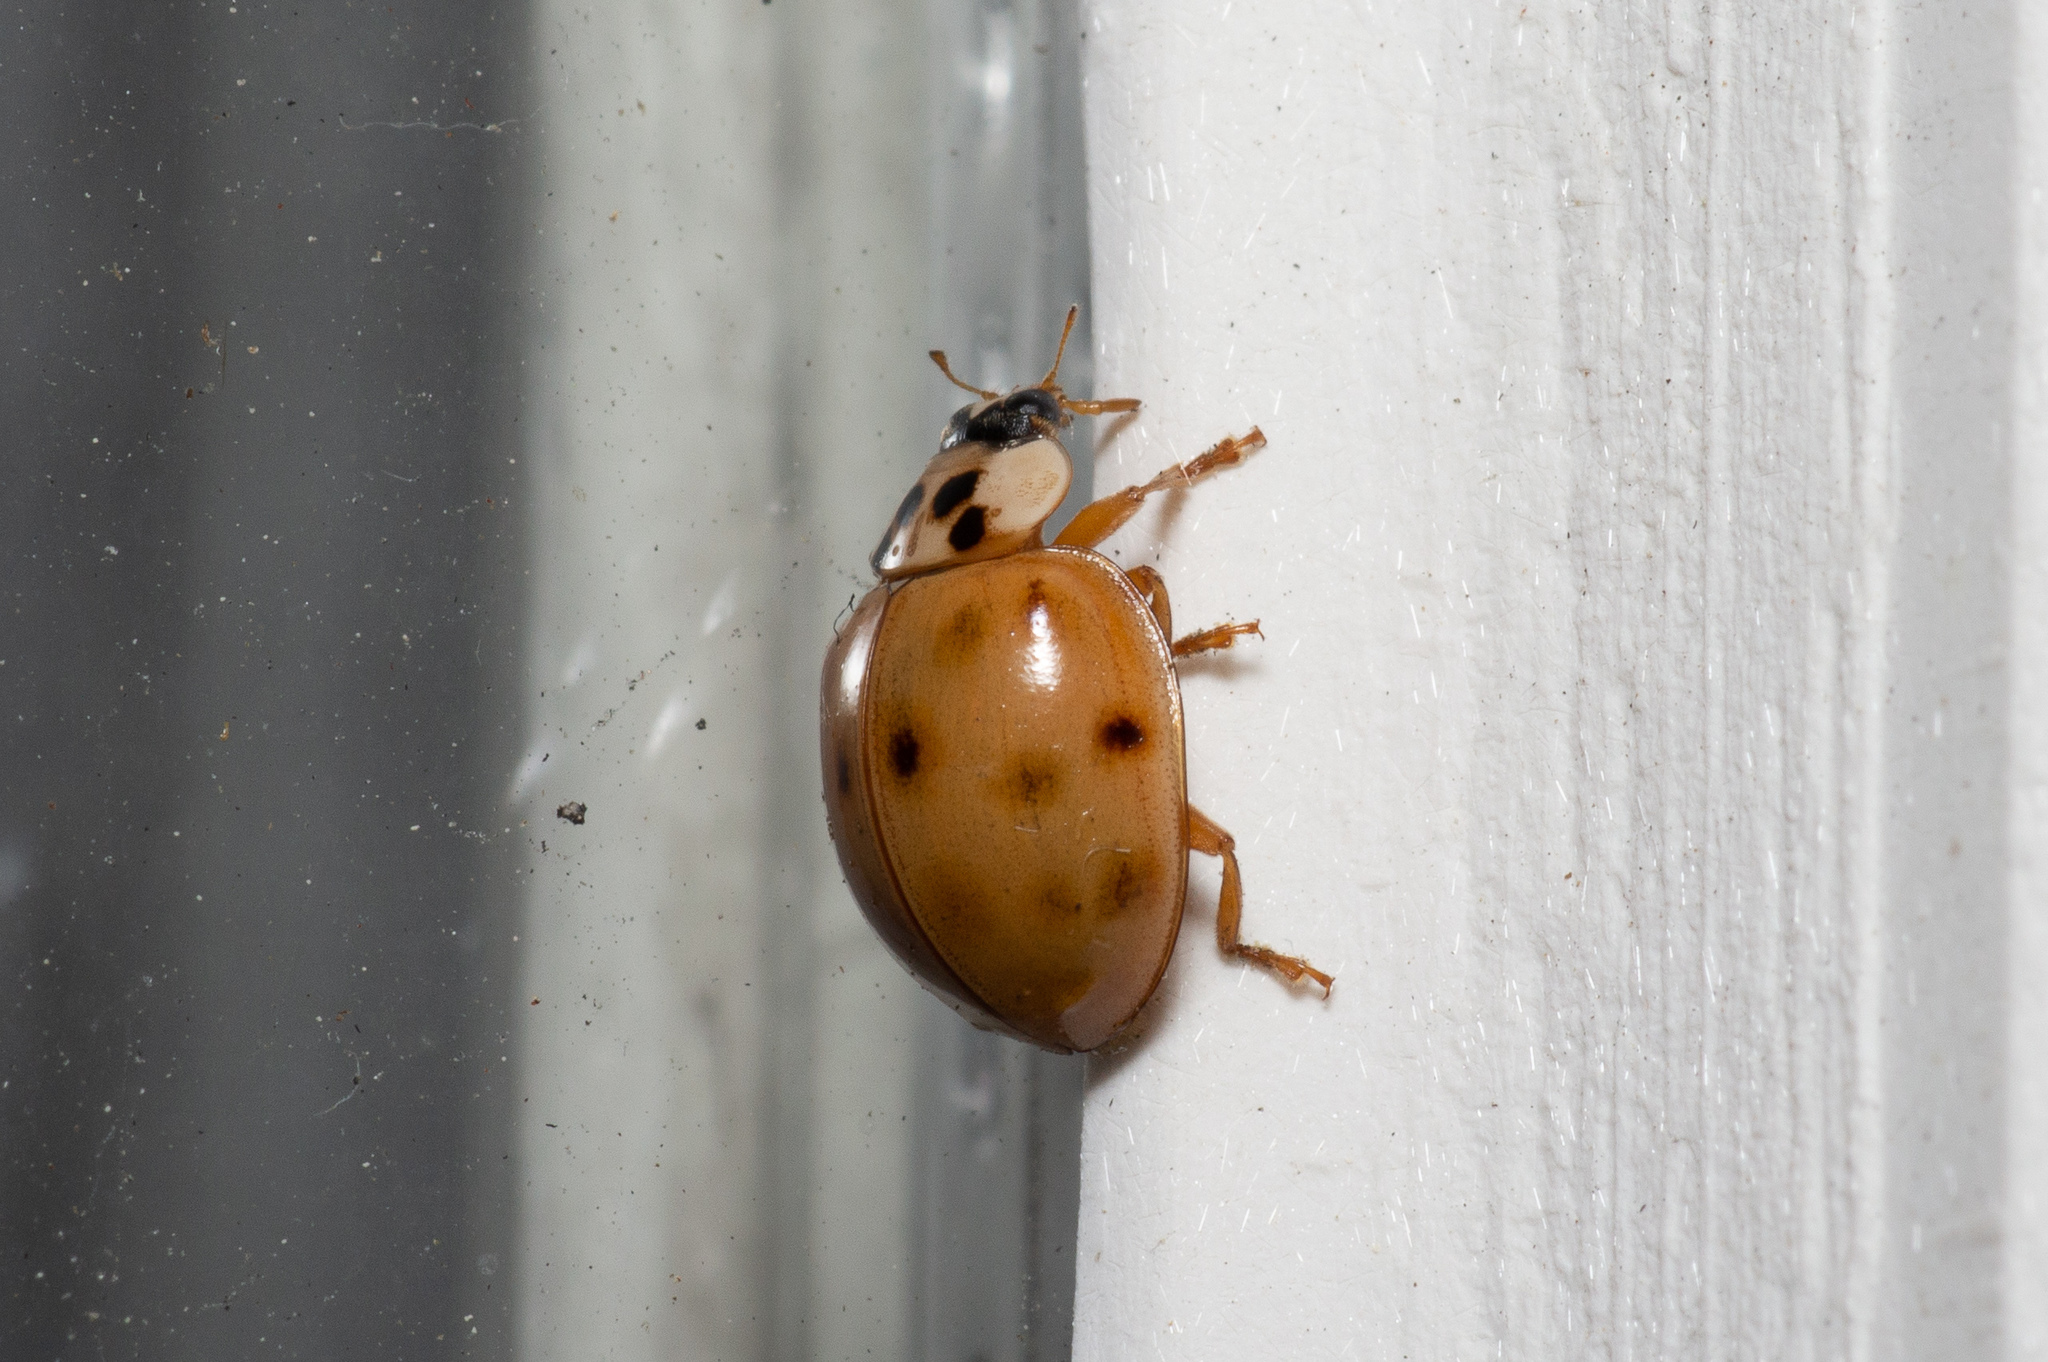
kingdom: Animalia
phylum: Arthropoda
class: Insecta
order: Coleoptera
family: Coccinellidae
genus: Harmonia
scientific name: Harmonia axyridis
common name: Harlequin ladybird
